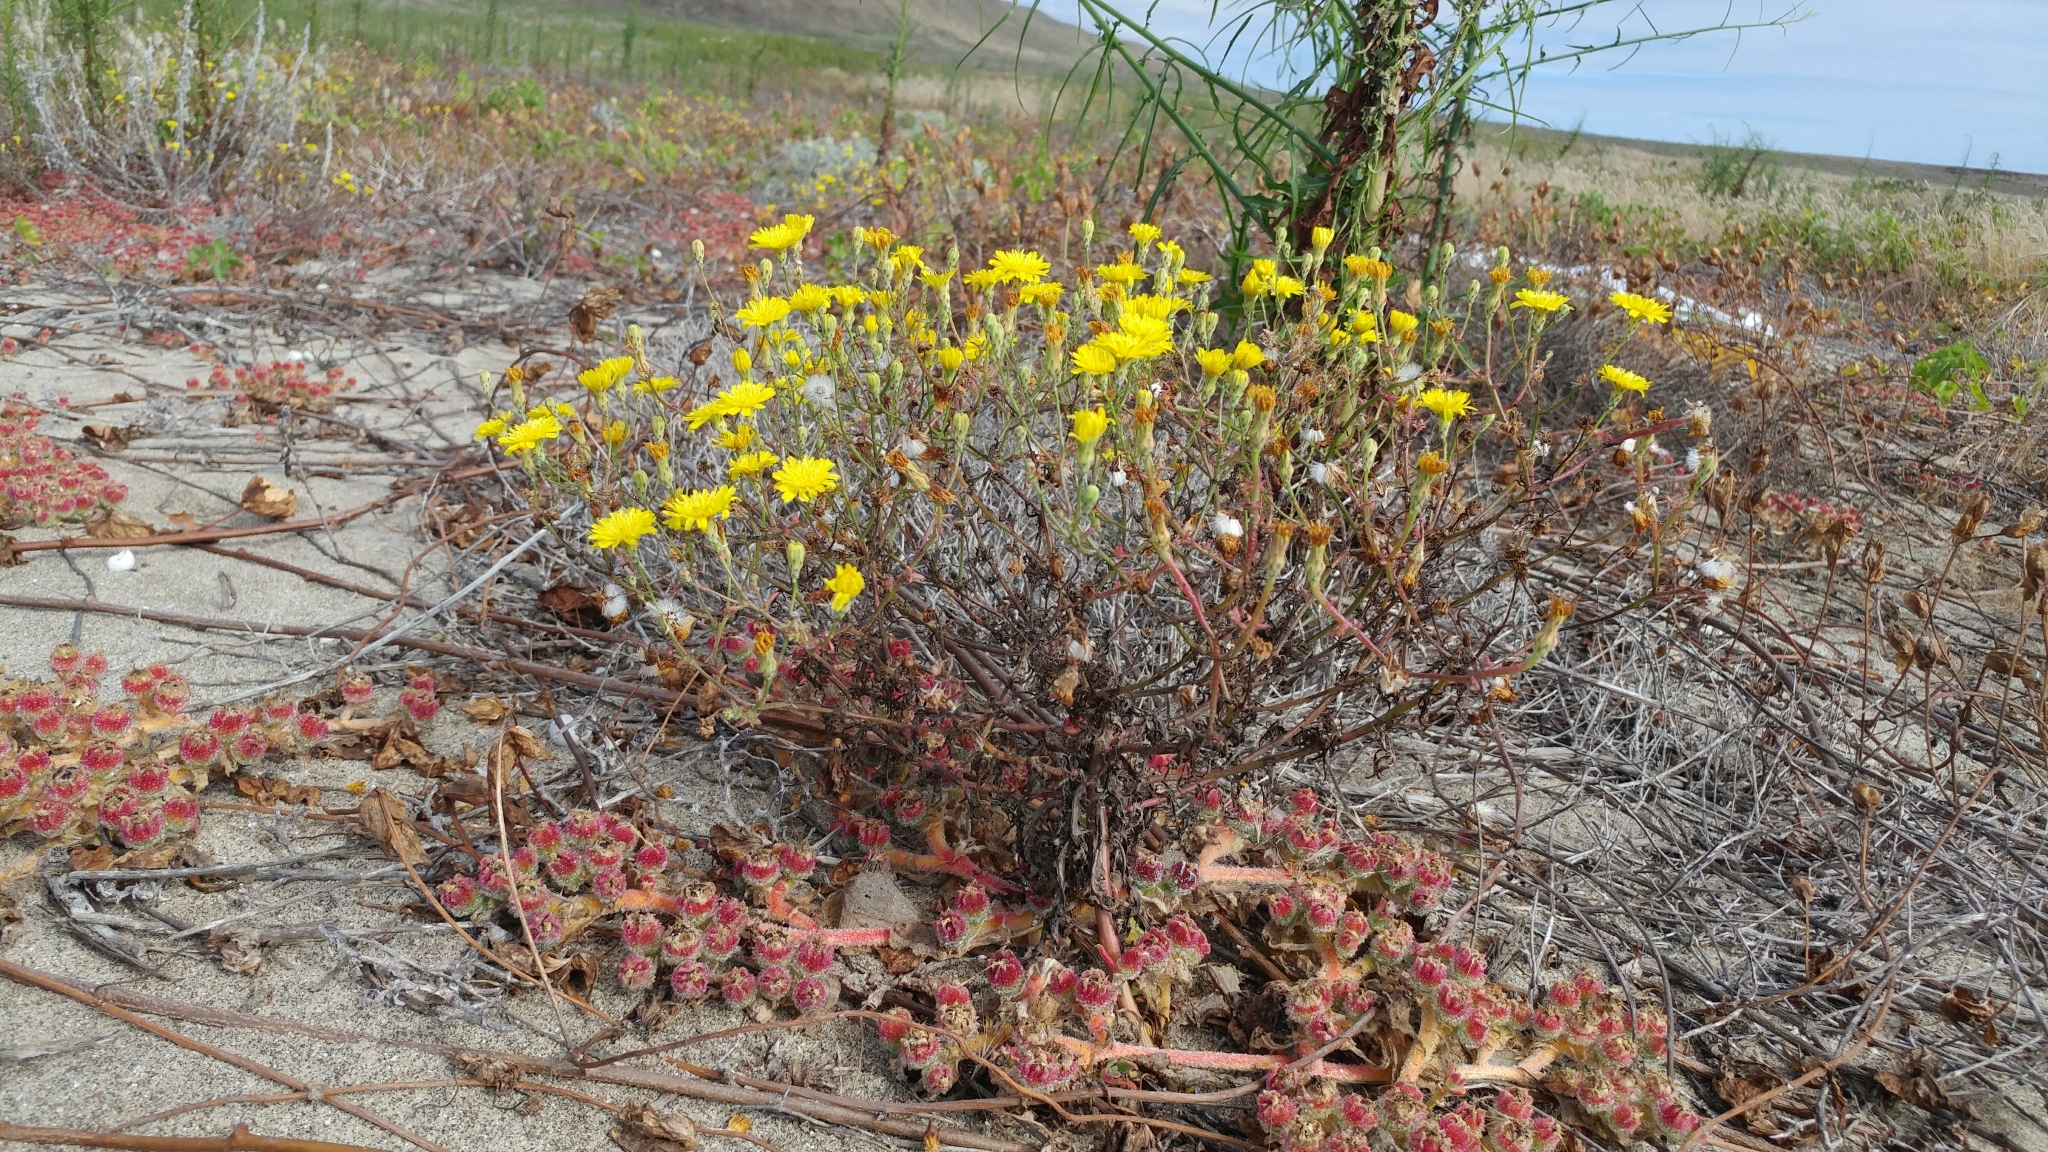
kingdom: Plantae
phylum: Tracheophyta
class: Magnoliopsida
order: Asterales
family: Asteraceae
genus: Malacothrix
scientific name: Malacothrix foliosa
